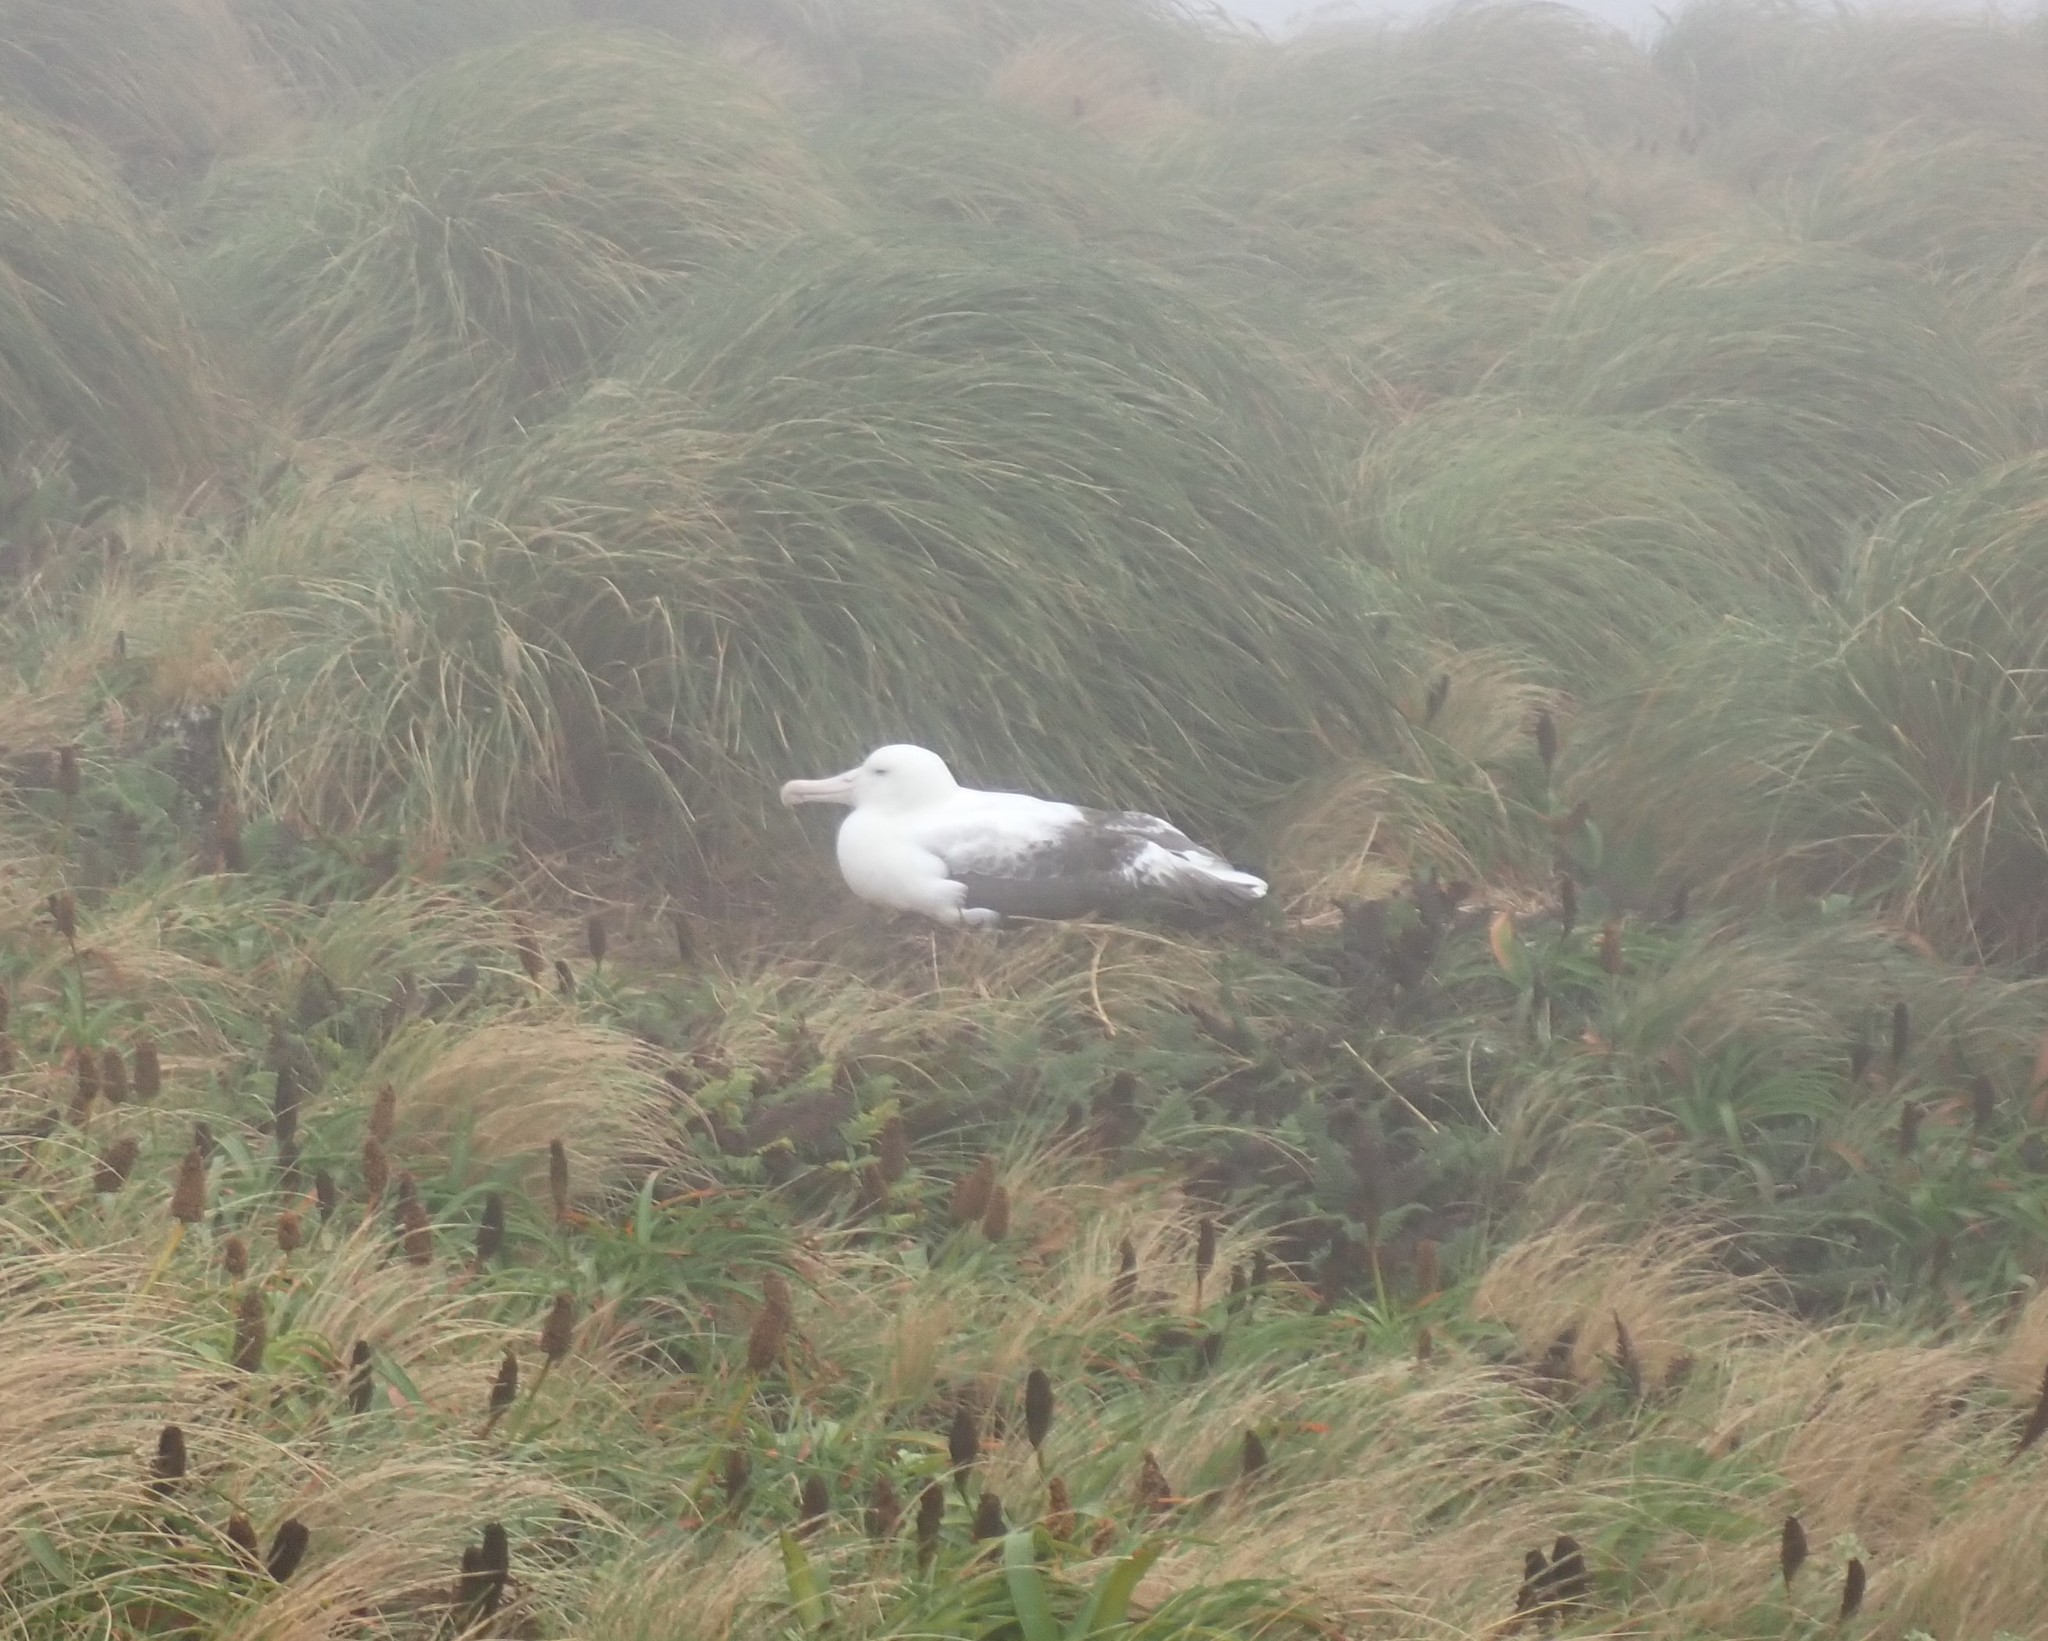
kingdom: Animalia
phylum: Chordata
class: Aves
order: Procellariiformes
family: Diomedeidae
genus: Diomedea
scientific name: Diomedea epomophora
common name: Southern royal albatross
